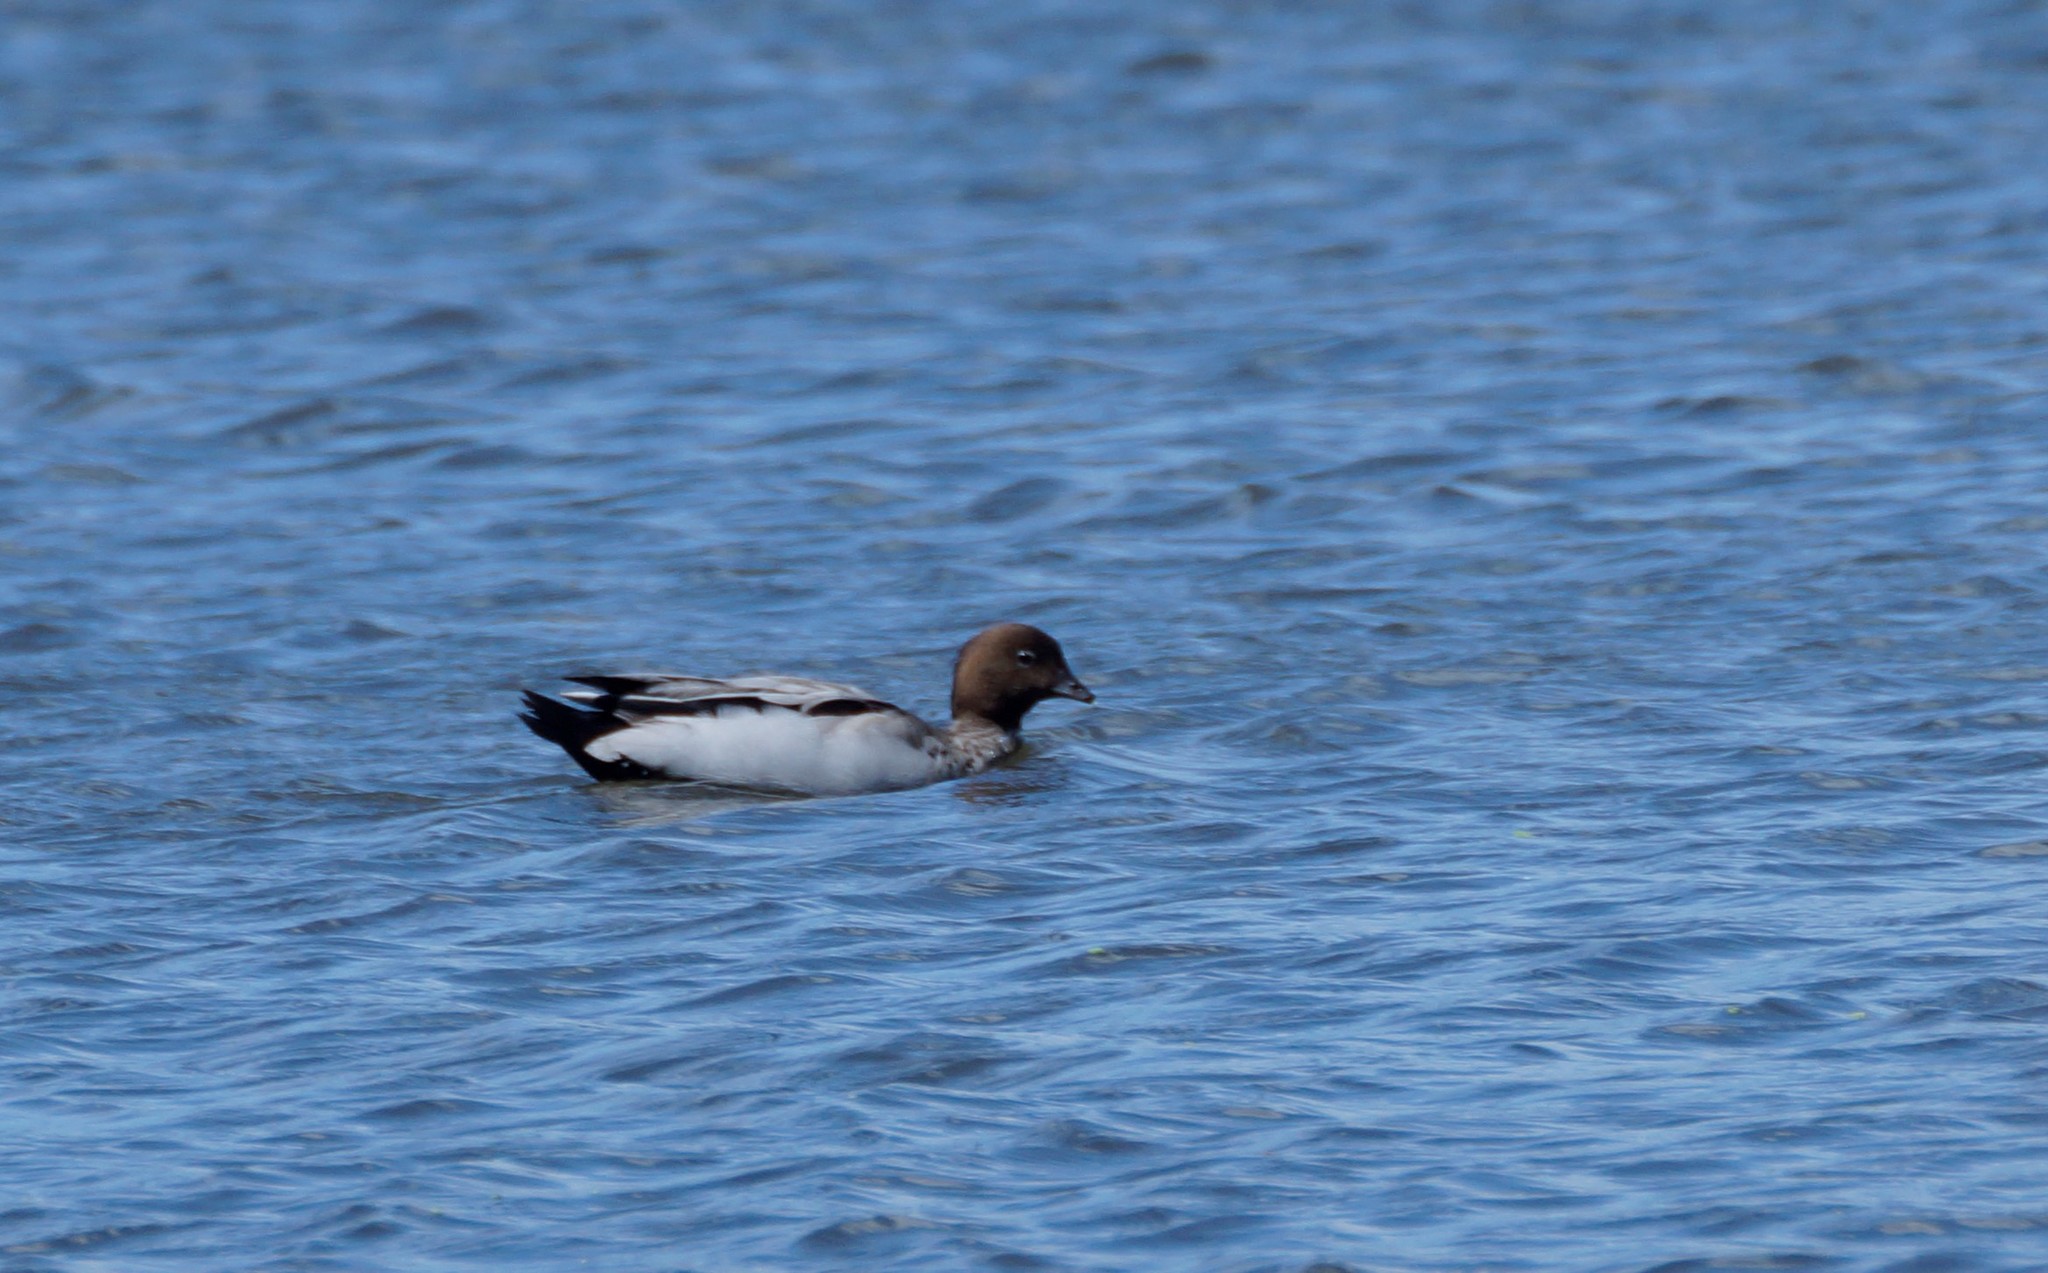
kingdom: Animalia
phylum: Chordata
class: Aves
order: Anseriformes
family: Anatidae
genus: Chenonetta
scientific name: Chenonetta jubata
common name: Maned duck
